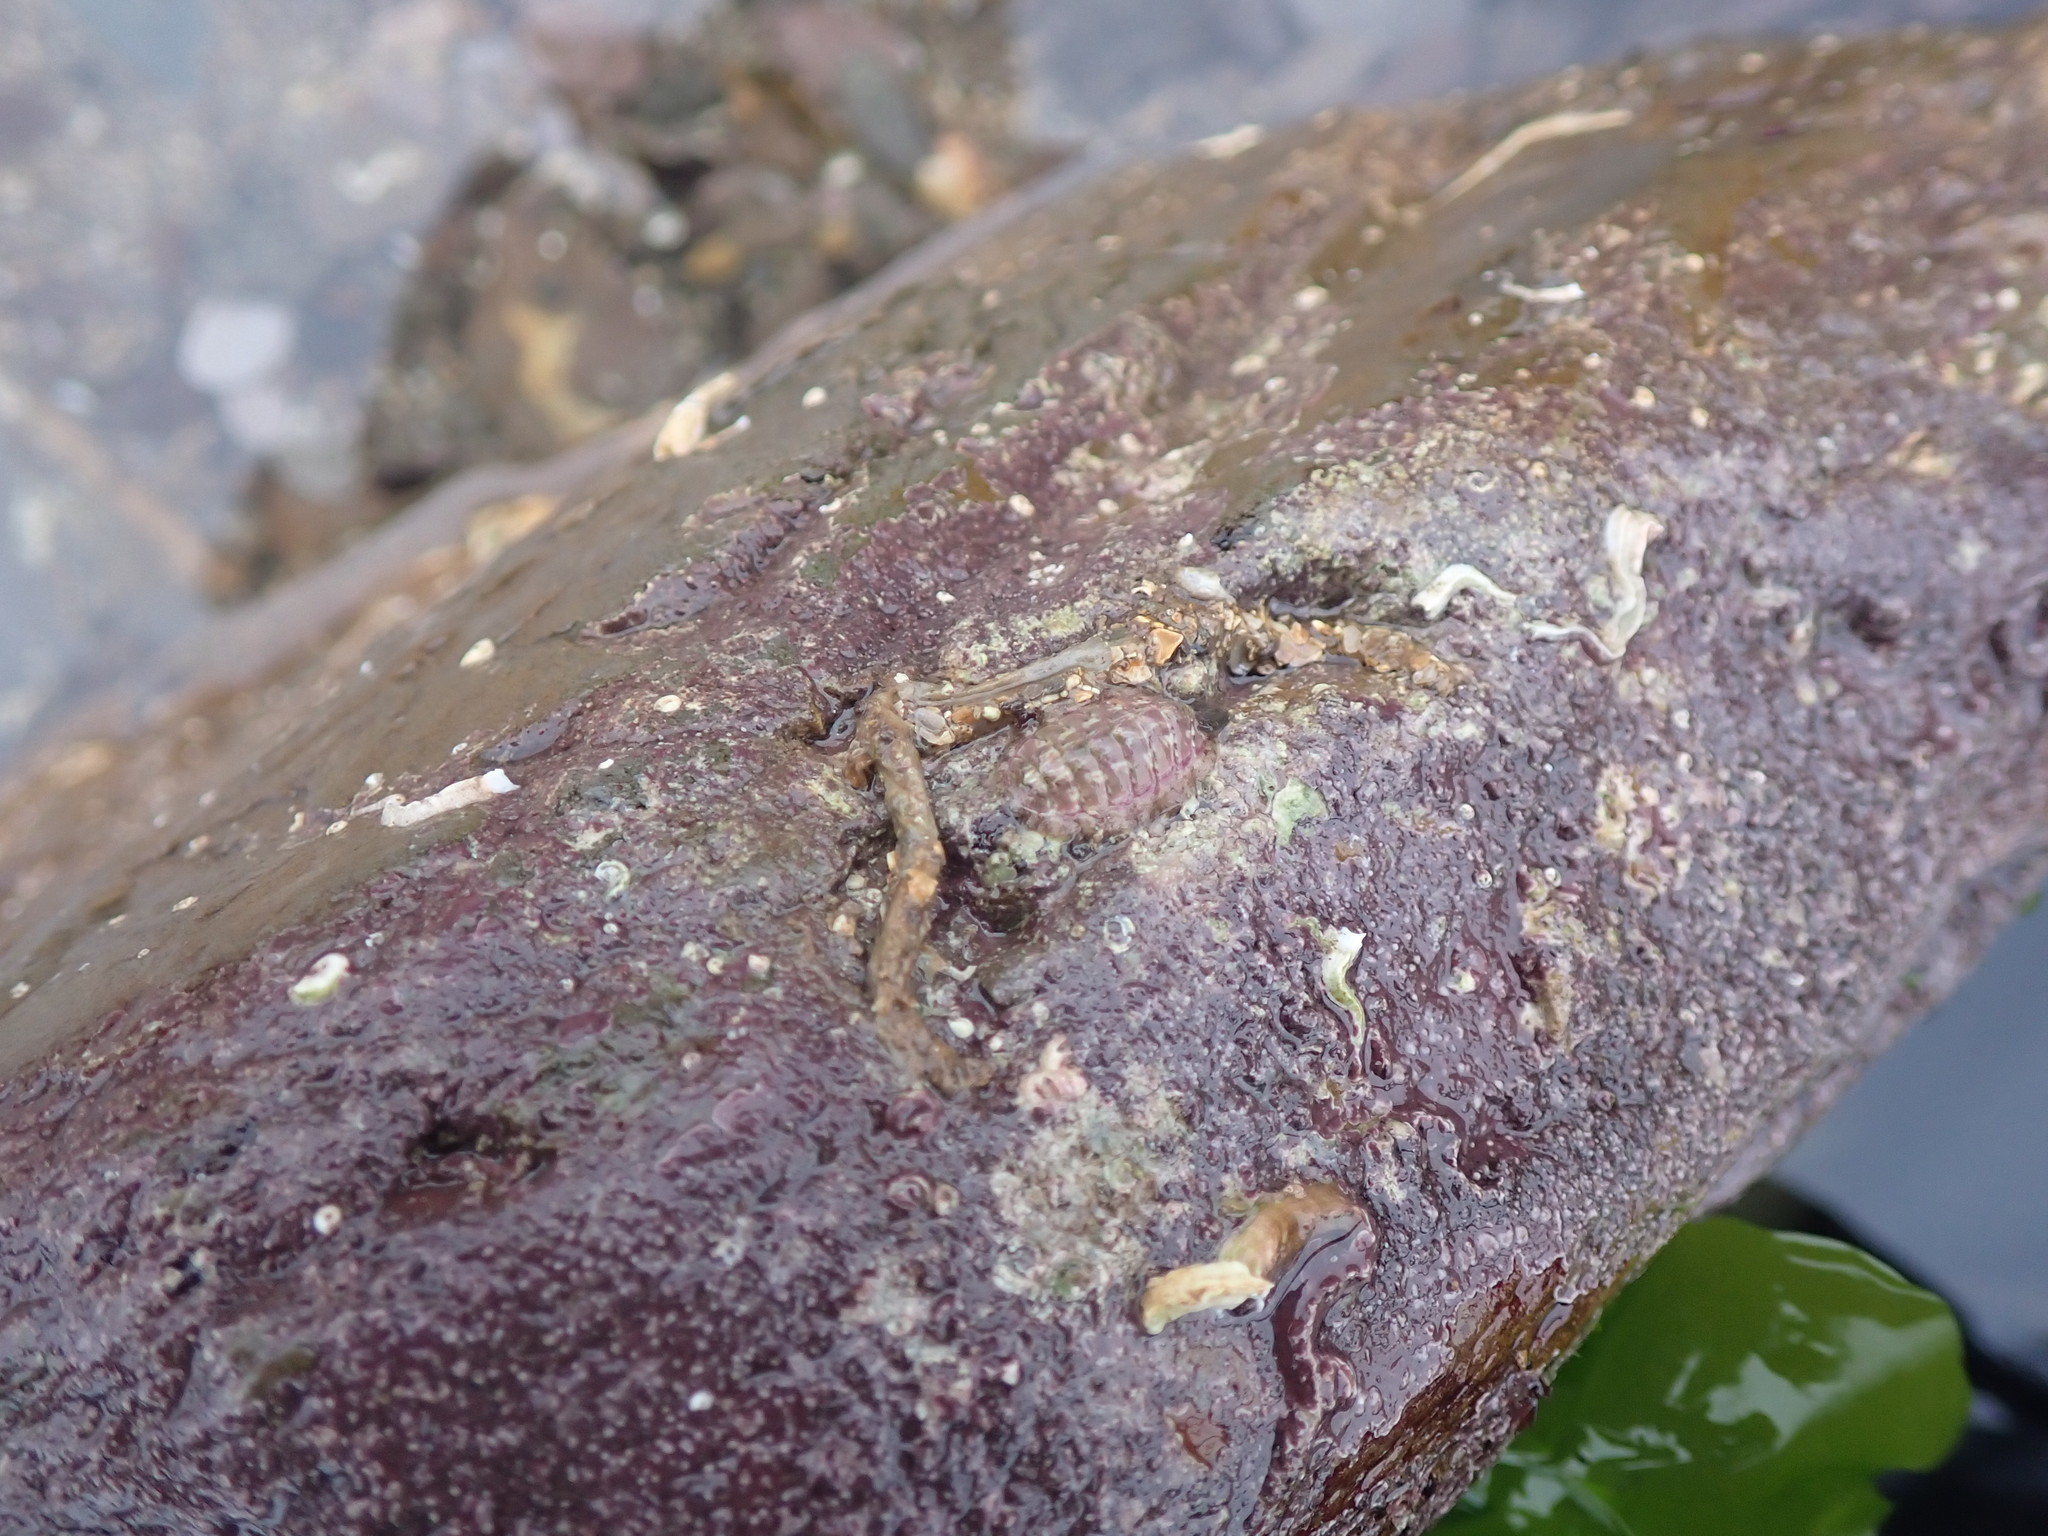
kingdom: Animalia
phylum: Mollusca
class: Polyplacophora
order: Chitonida
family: Tonicellidae
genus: Lepidochitona
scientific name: Lepidochitona cinerea
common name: Cinereous chiton
